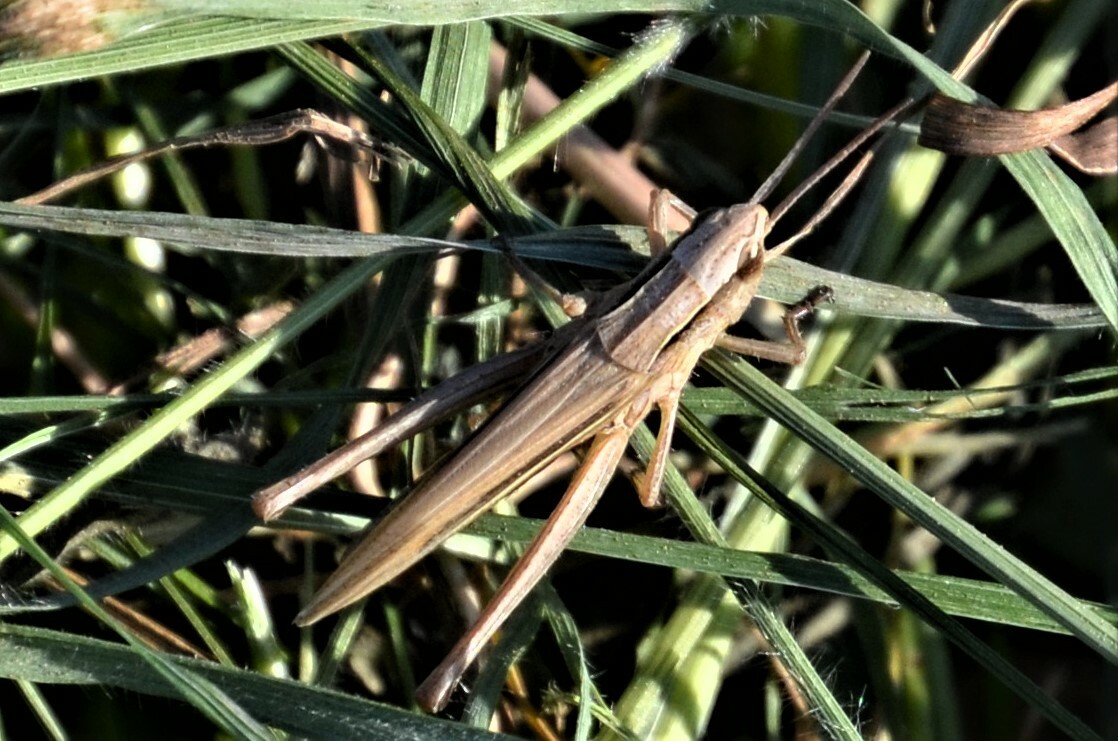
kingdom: Animalia
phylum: Arthropoda
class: Insecta
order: Orthoptera
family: Acrididae
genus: Chorthippus
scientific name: Chorthippus albomarginatus
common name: Lesser marsh grasshopper
